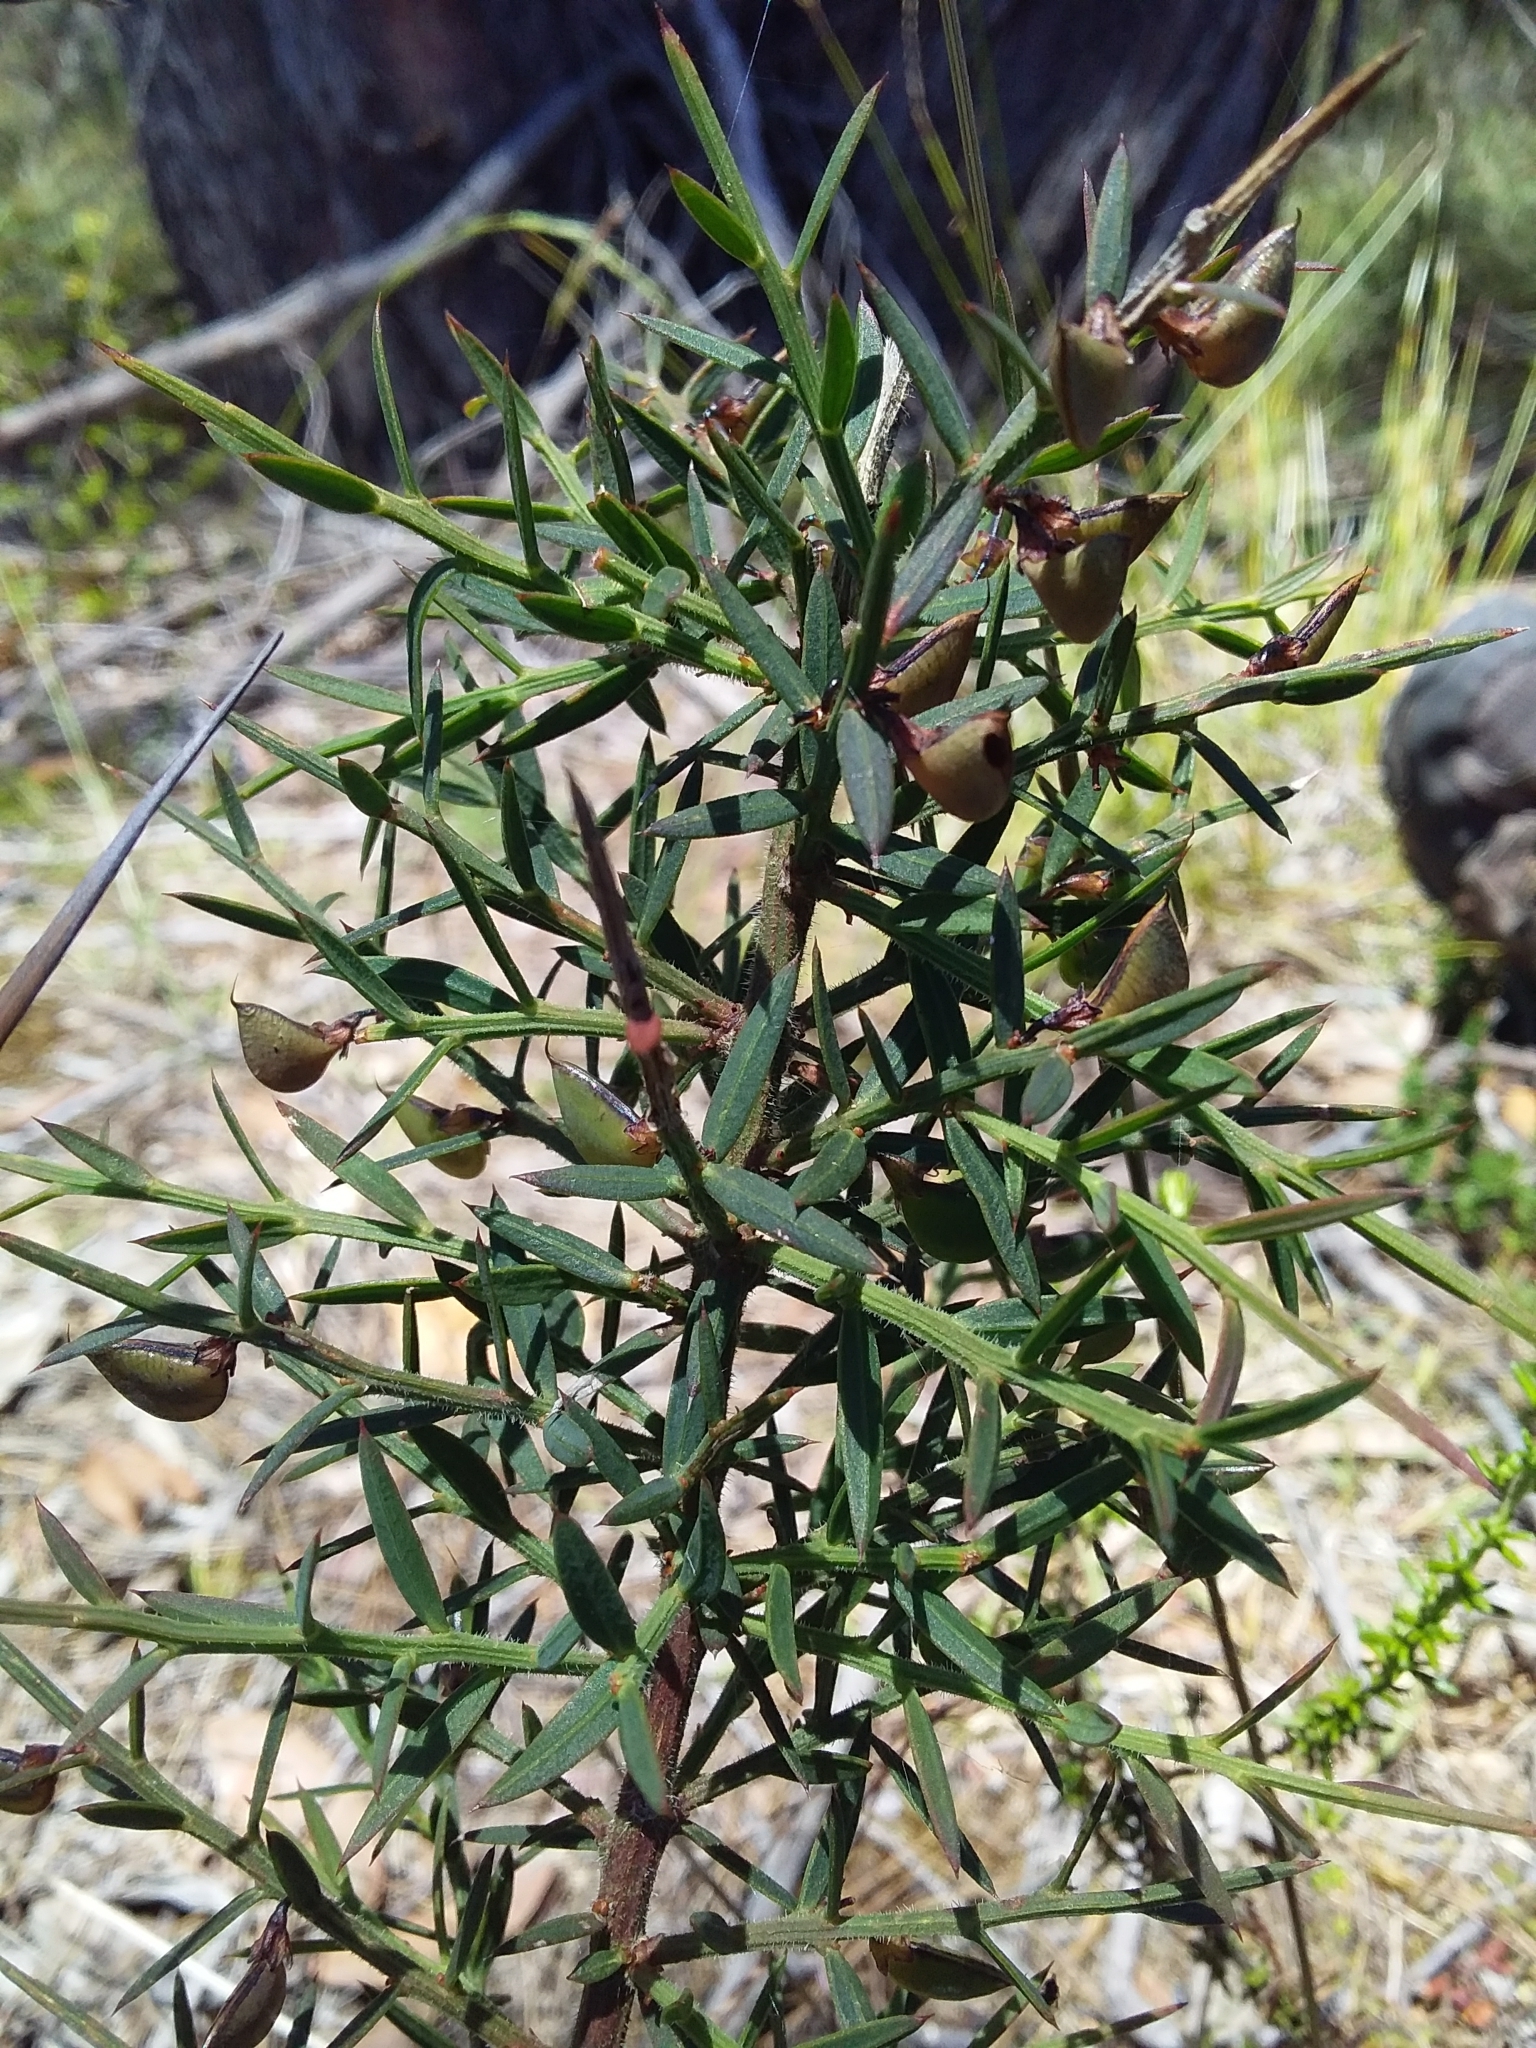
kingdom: Plantae
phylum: Tracheophyta
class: Magnoliopsida
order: Fabales
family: Fabaceae
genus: Daviesia
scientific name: Daviesia ulicifolia
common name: Gorse bitter-pea
